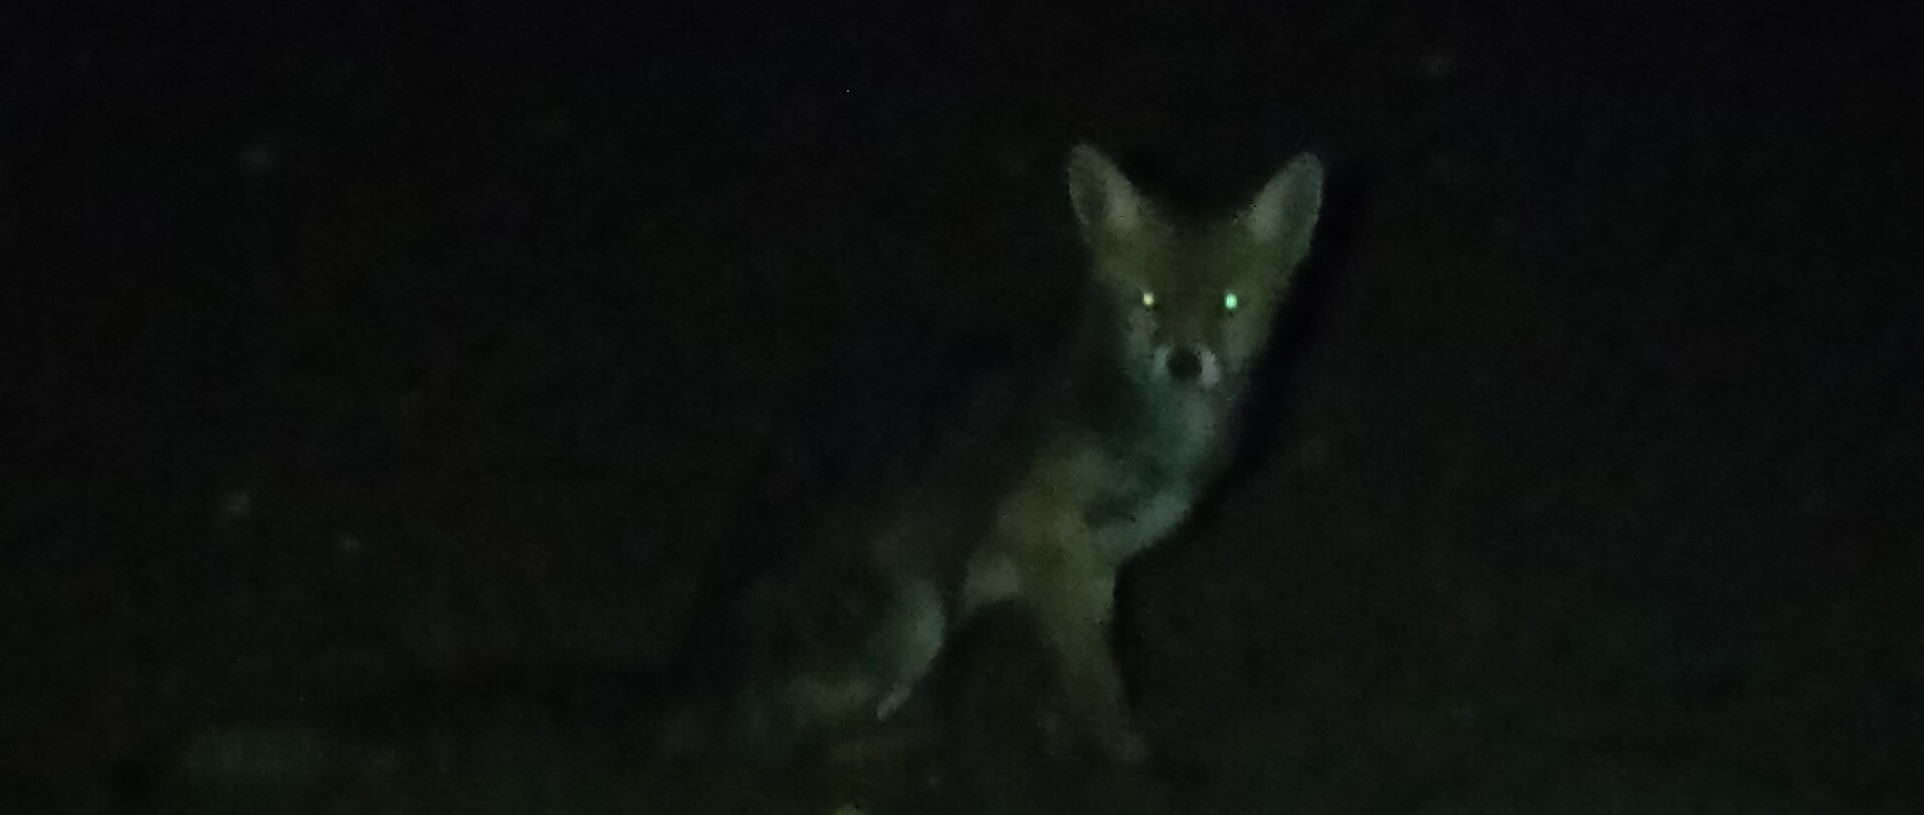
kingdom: Animalia
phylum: Chordata
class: Mammalia
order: Carnivora
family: Canidae
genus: Vulpes
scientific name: Vulpes vulpes
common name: Red fox
